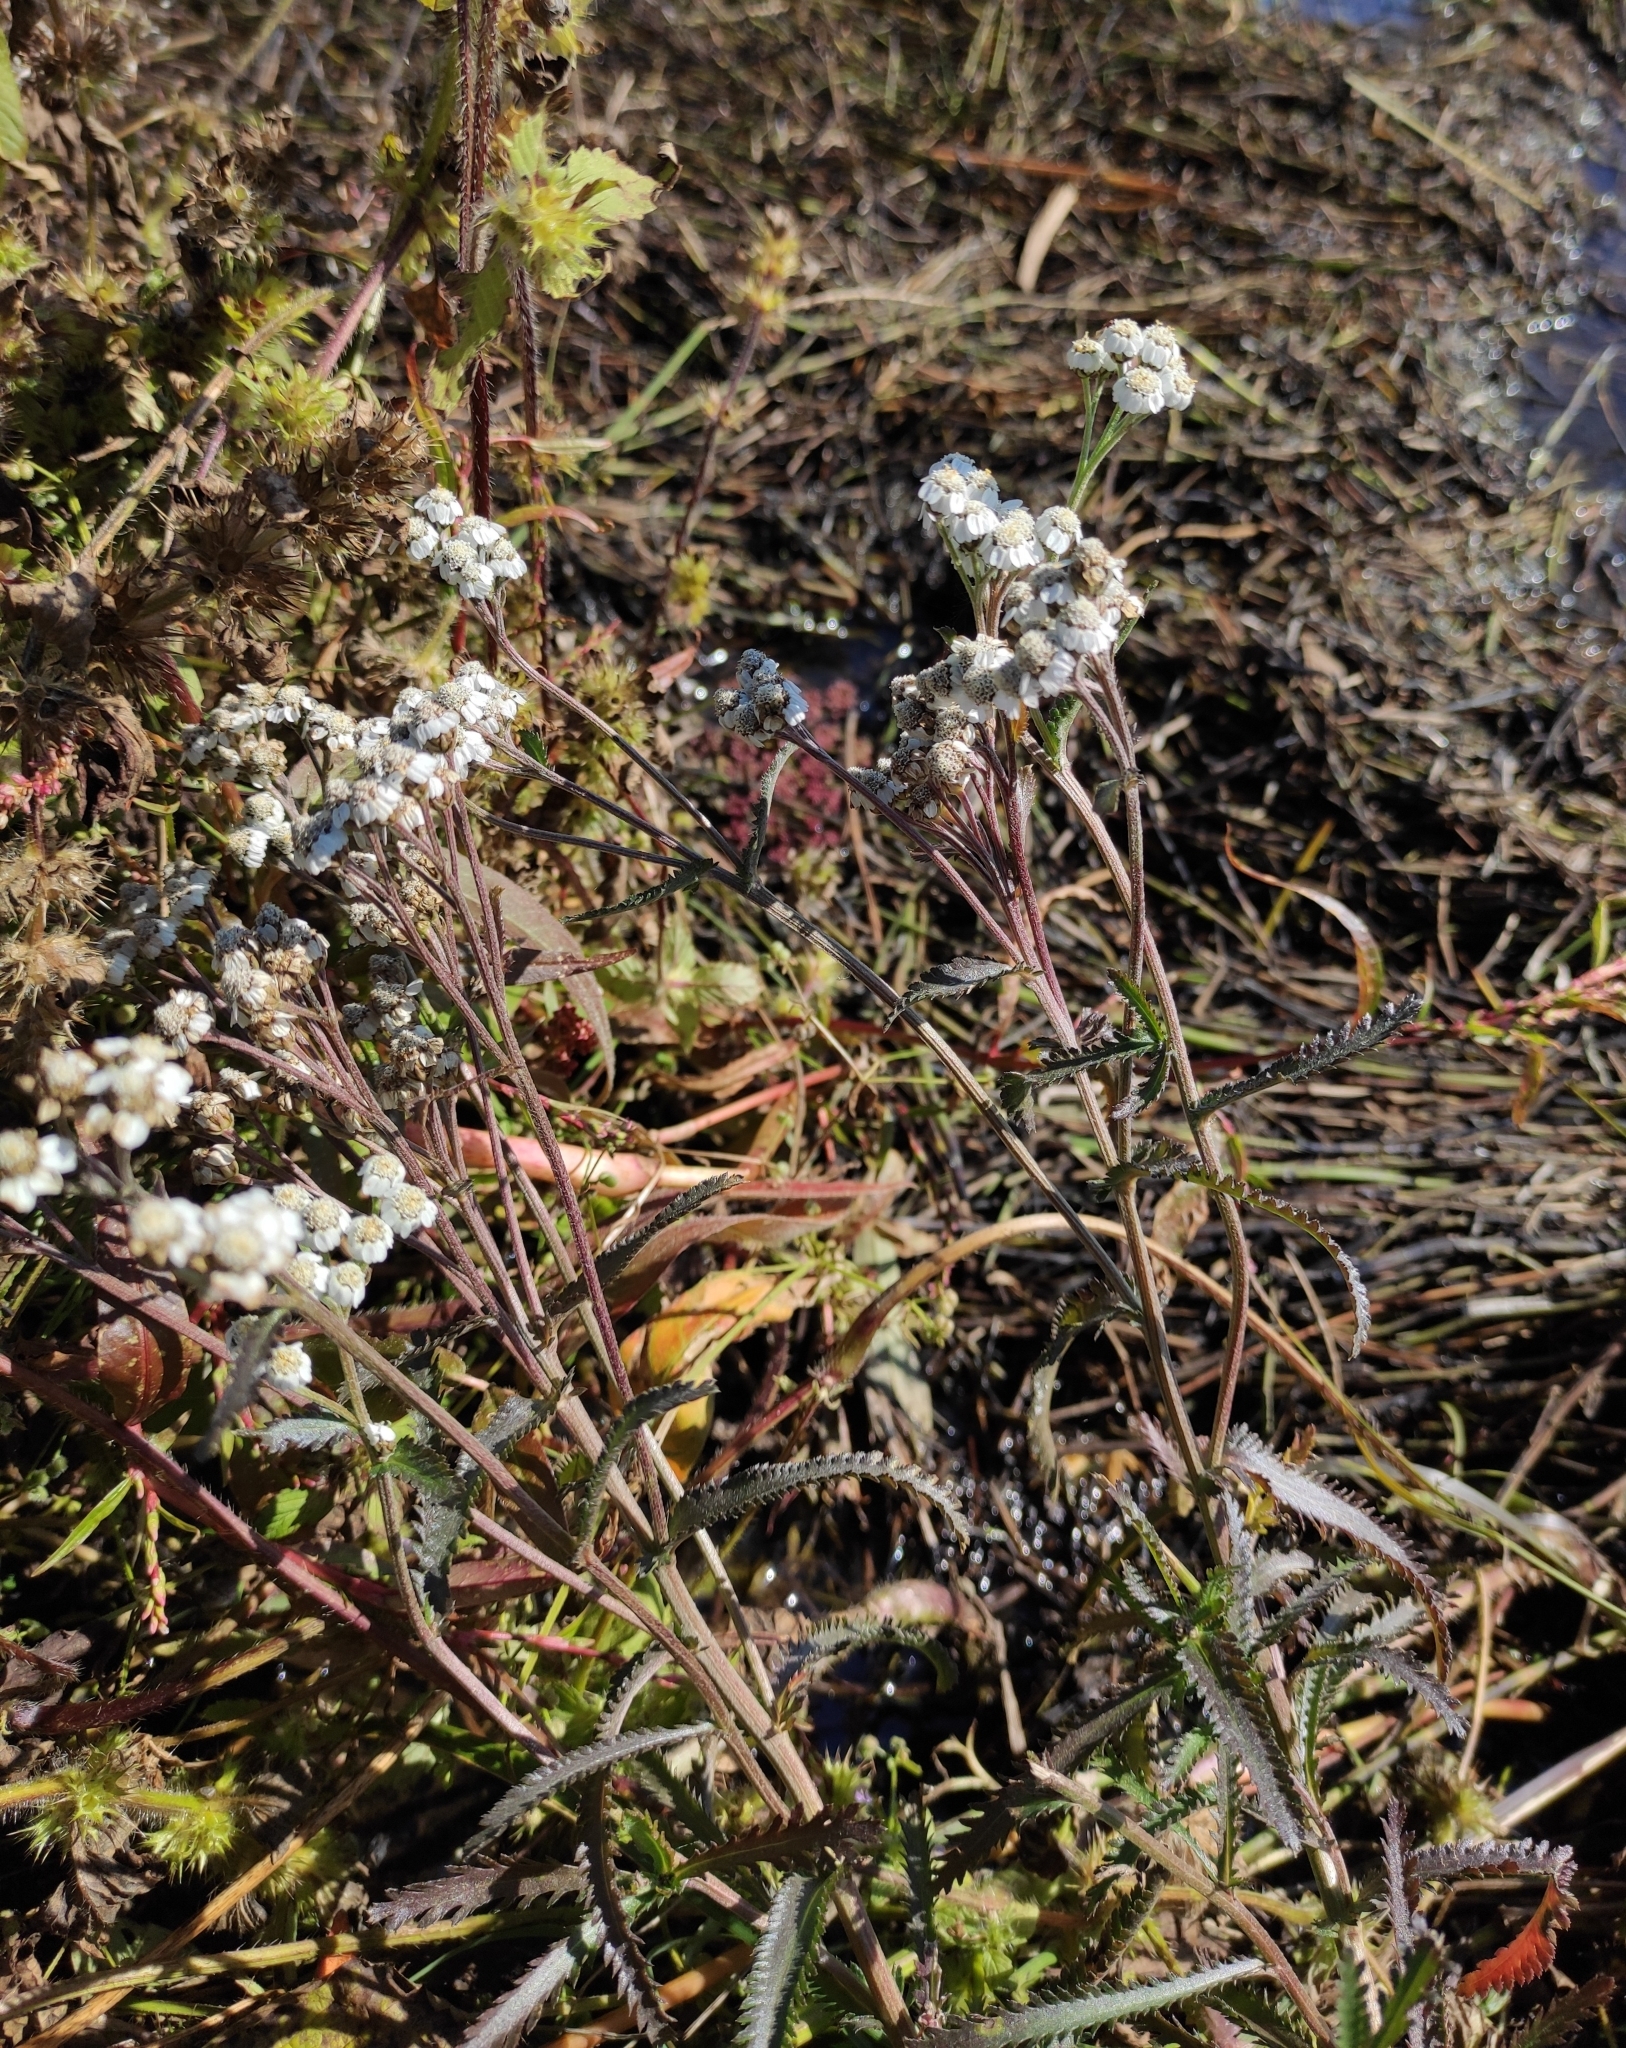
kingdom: Plantae
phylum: Tracheophyta
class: Magnoliopsida
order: Asterales
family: Asteraceae
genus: Achillea
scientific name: Achillea alpina
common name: Siberian yarrow
